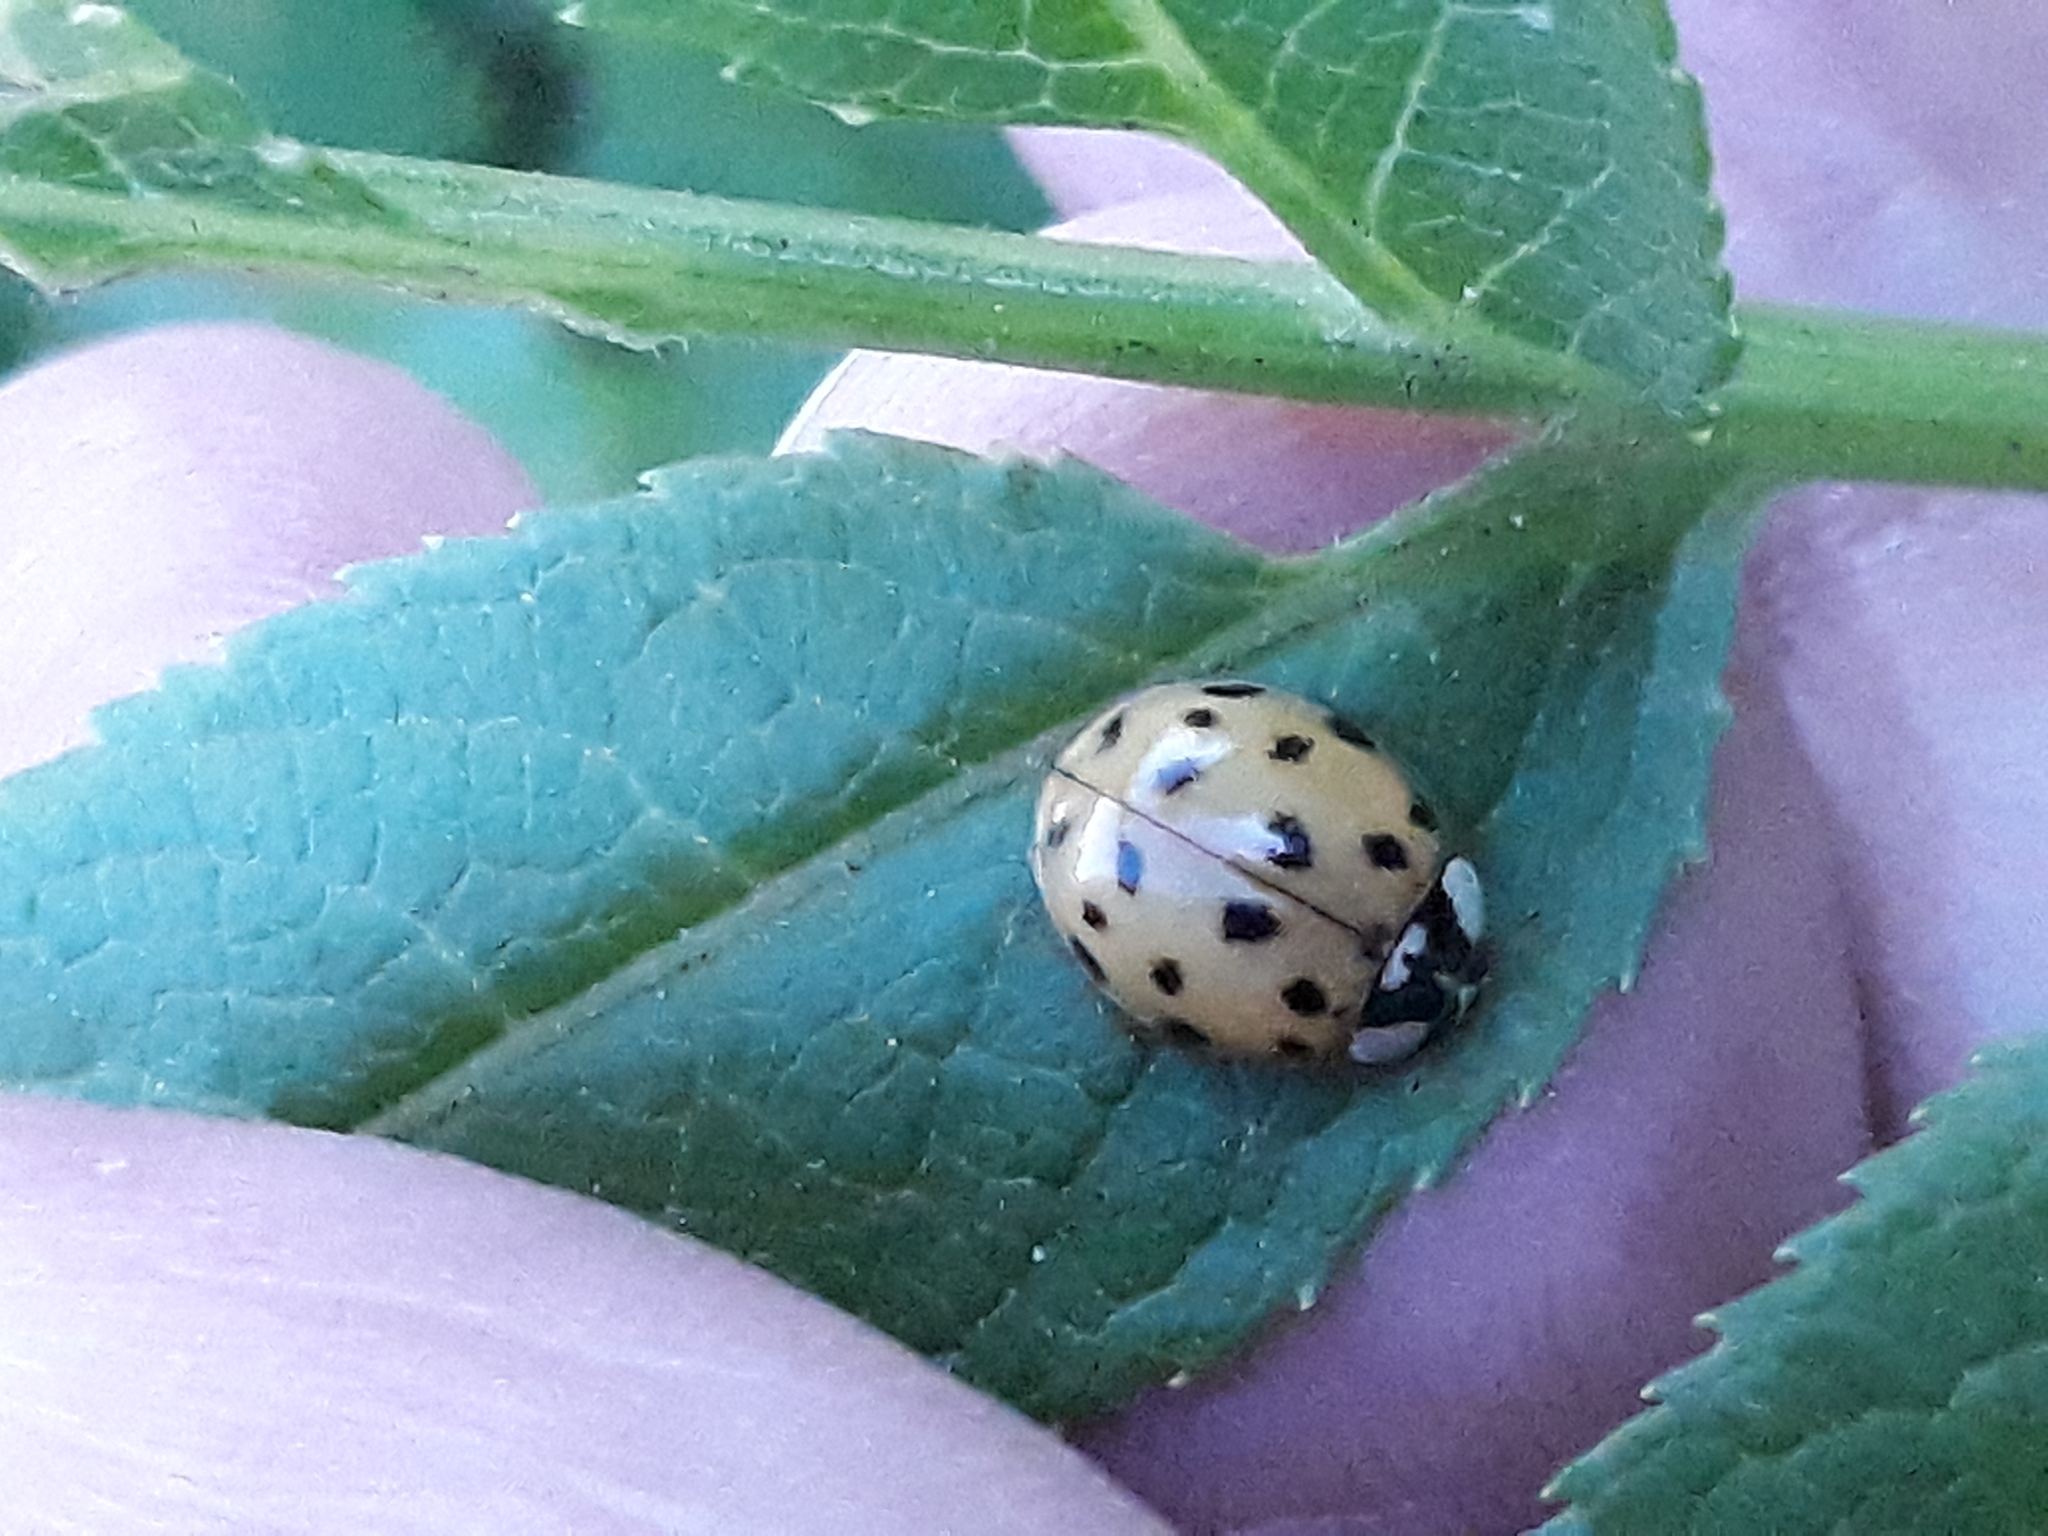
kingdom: Animalia
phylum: Arthropoda
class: Insecta
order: Coleoptera
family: Coccinellidae
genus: Harmonia
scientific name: Harmonia axyridis
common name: Harlequin ladybird
